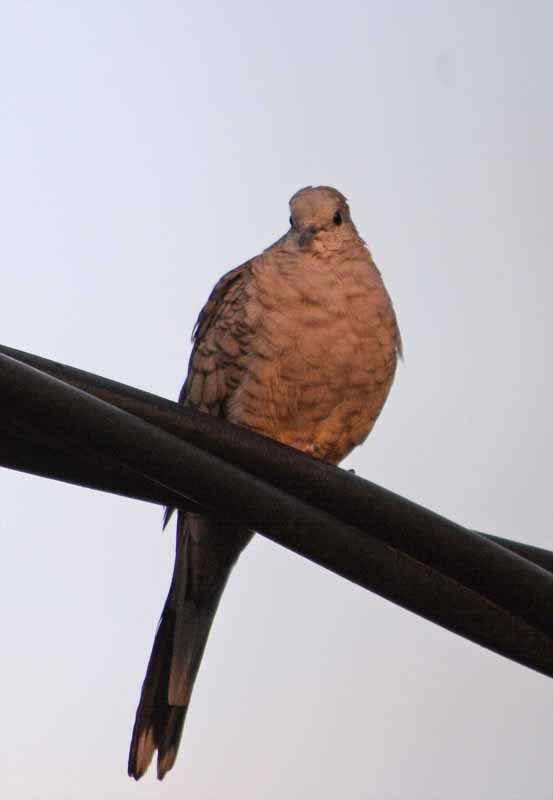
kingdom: Animalia
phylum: Chordata
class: Aves
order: Columbiformes
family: Columbidae
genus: Columbina
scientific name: Columbina inca
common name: Inca dove
